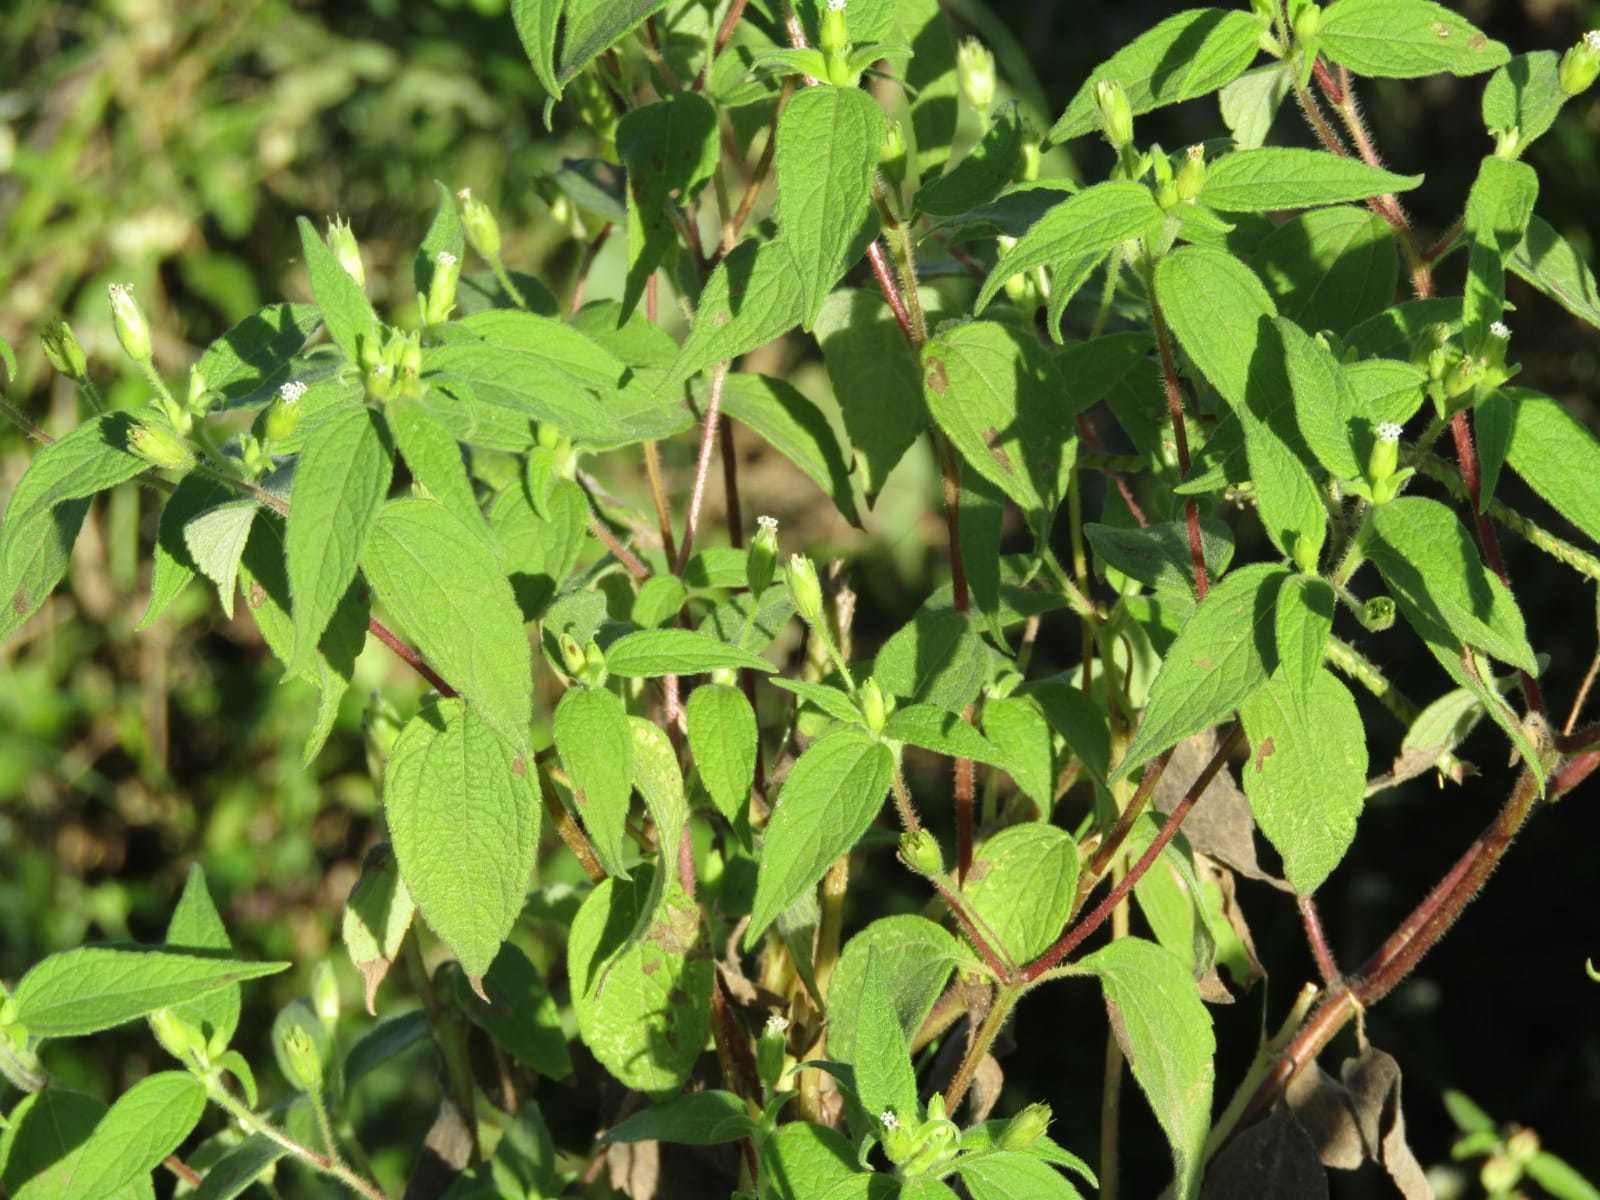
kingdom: Plantae
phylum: Tracheophyta
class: Magnoliopsida
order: Asterales
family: Asteraceae
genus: Blainvillea
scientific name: Blainvillea gayana
